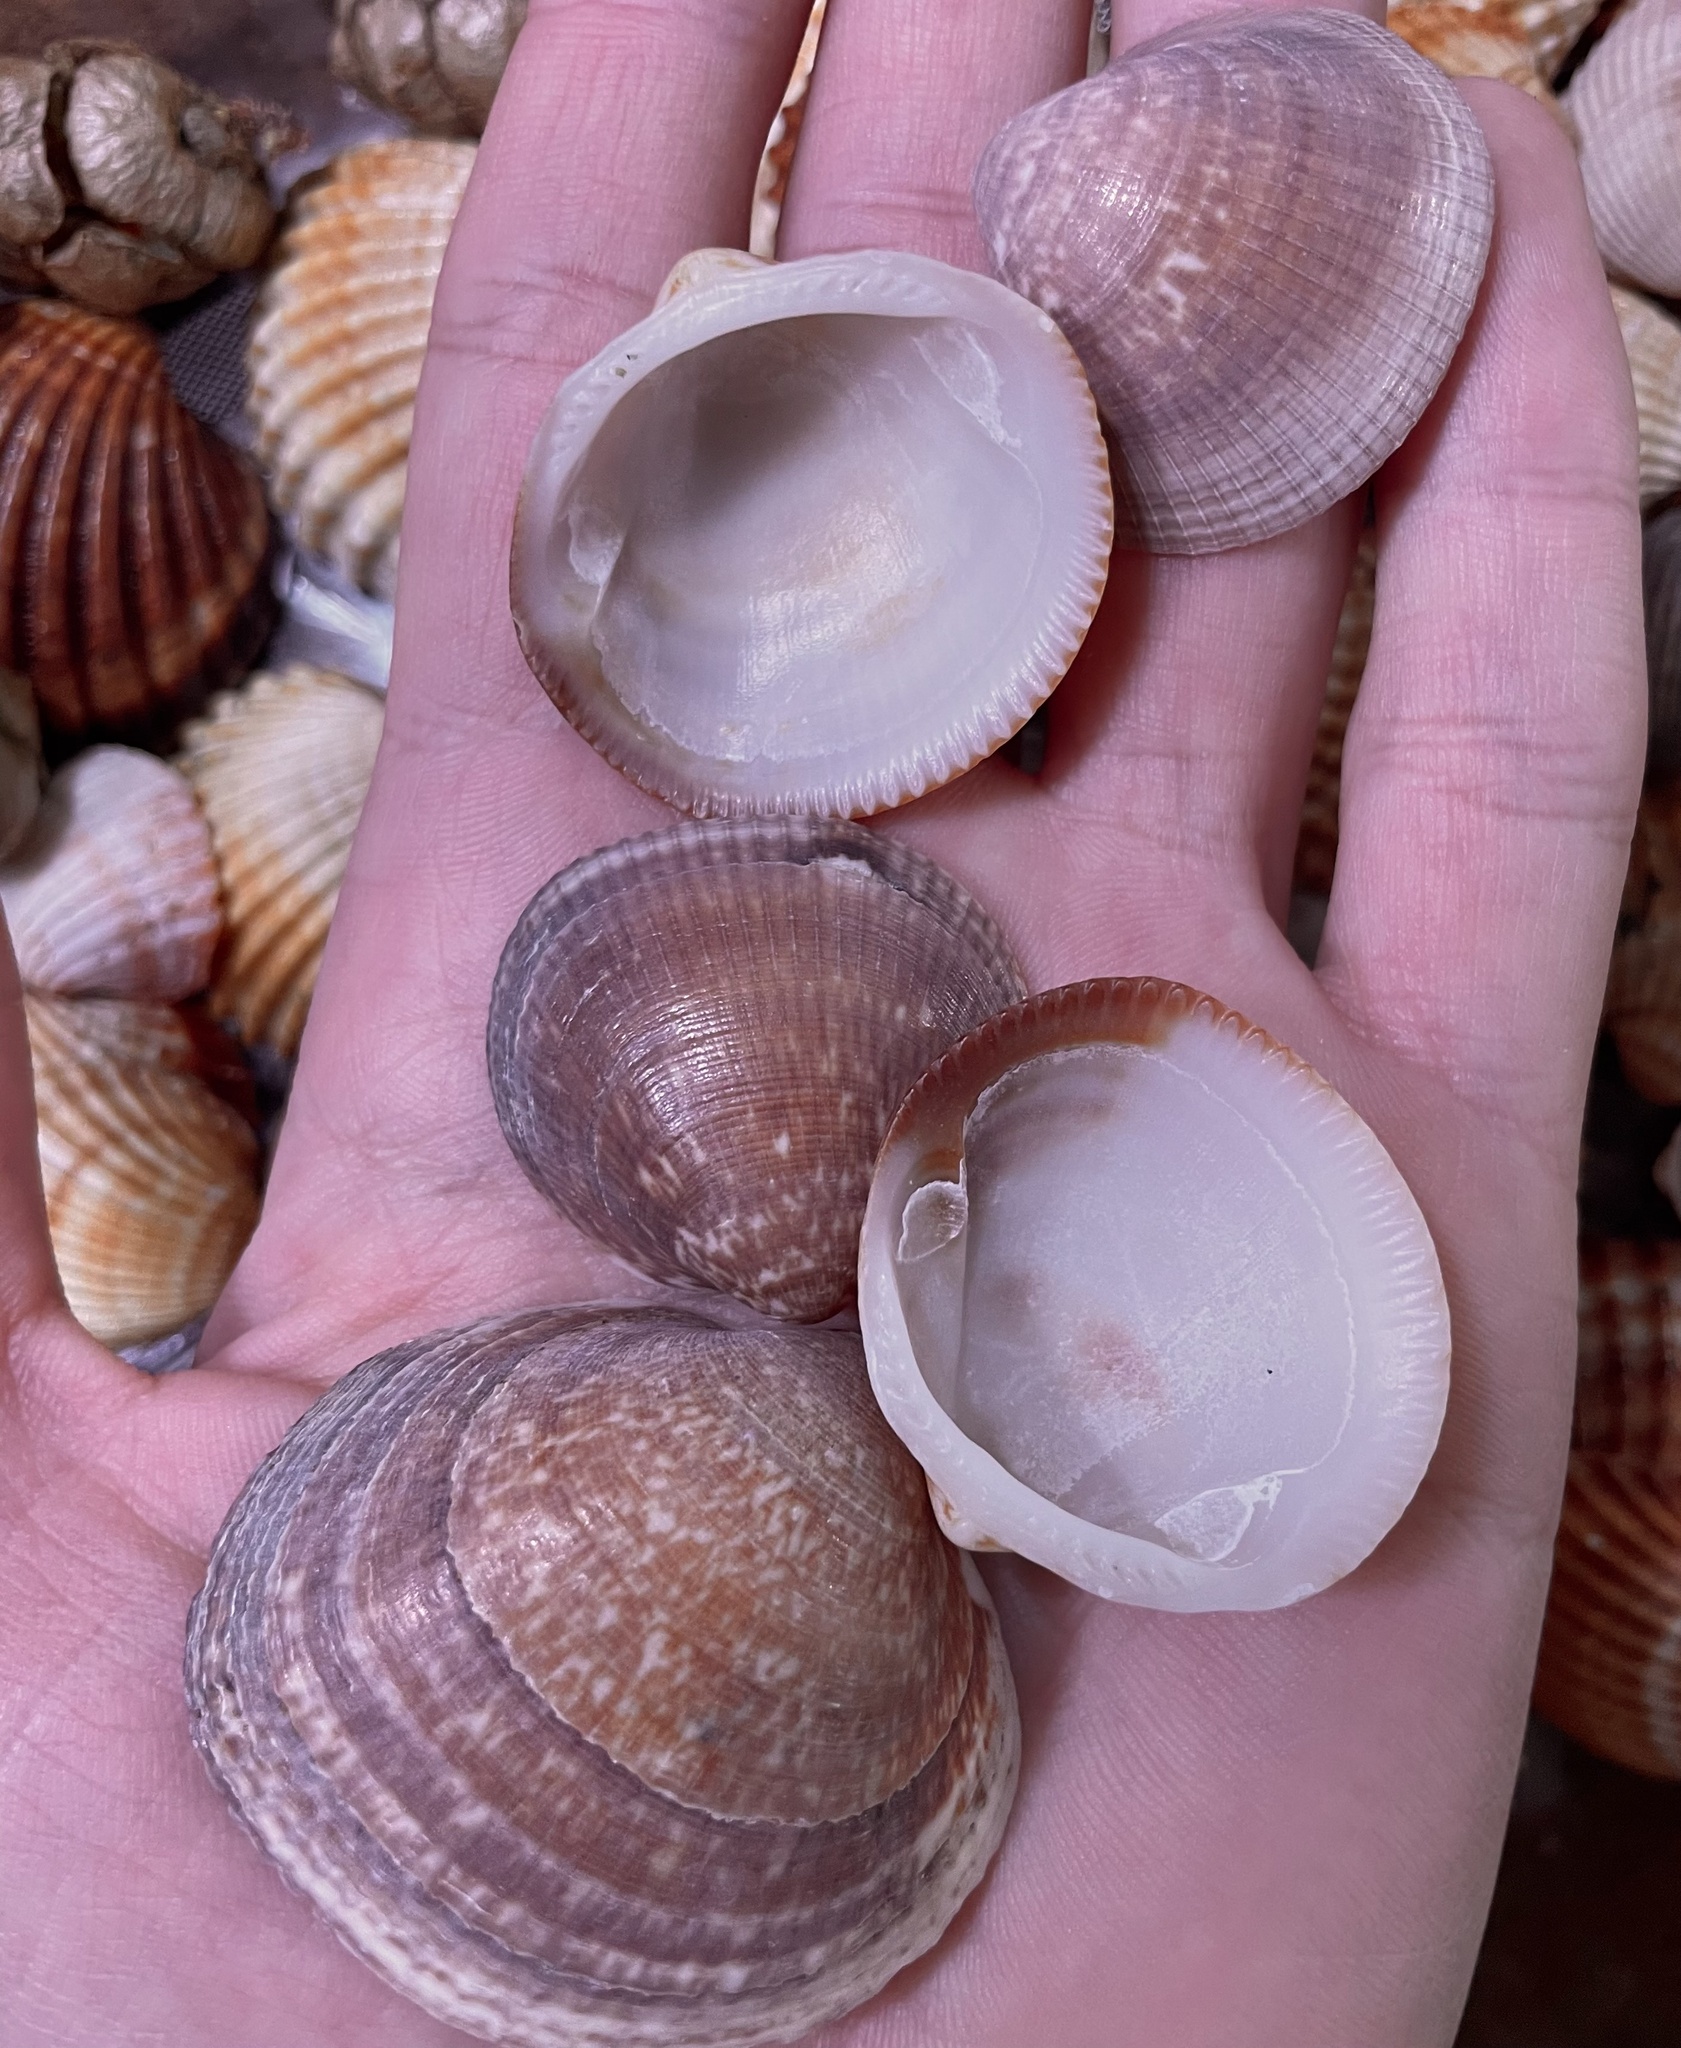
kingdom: Animalia
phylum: Mollusca
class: Bivalvia
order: Arcida
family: Glycymerididae
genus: Glycymeris
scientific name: Glycymeris nummaria
